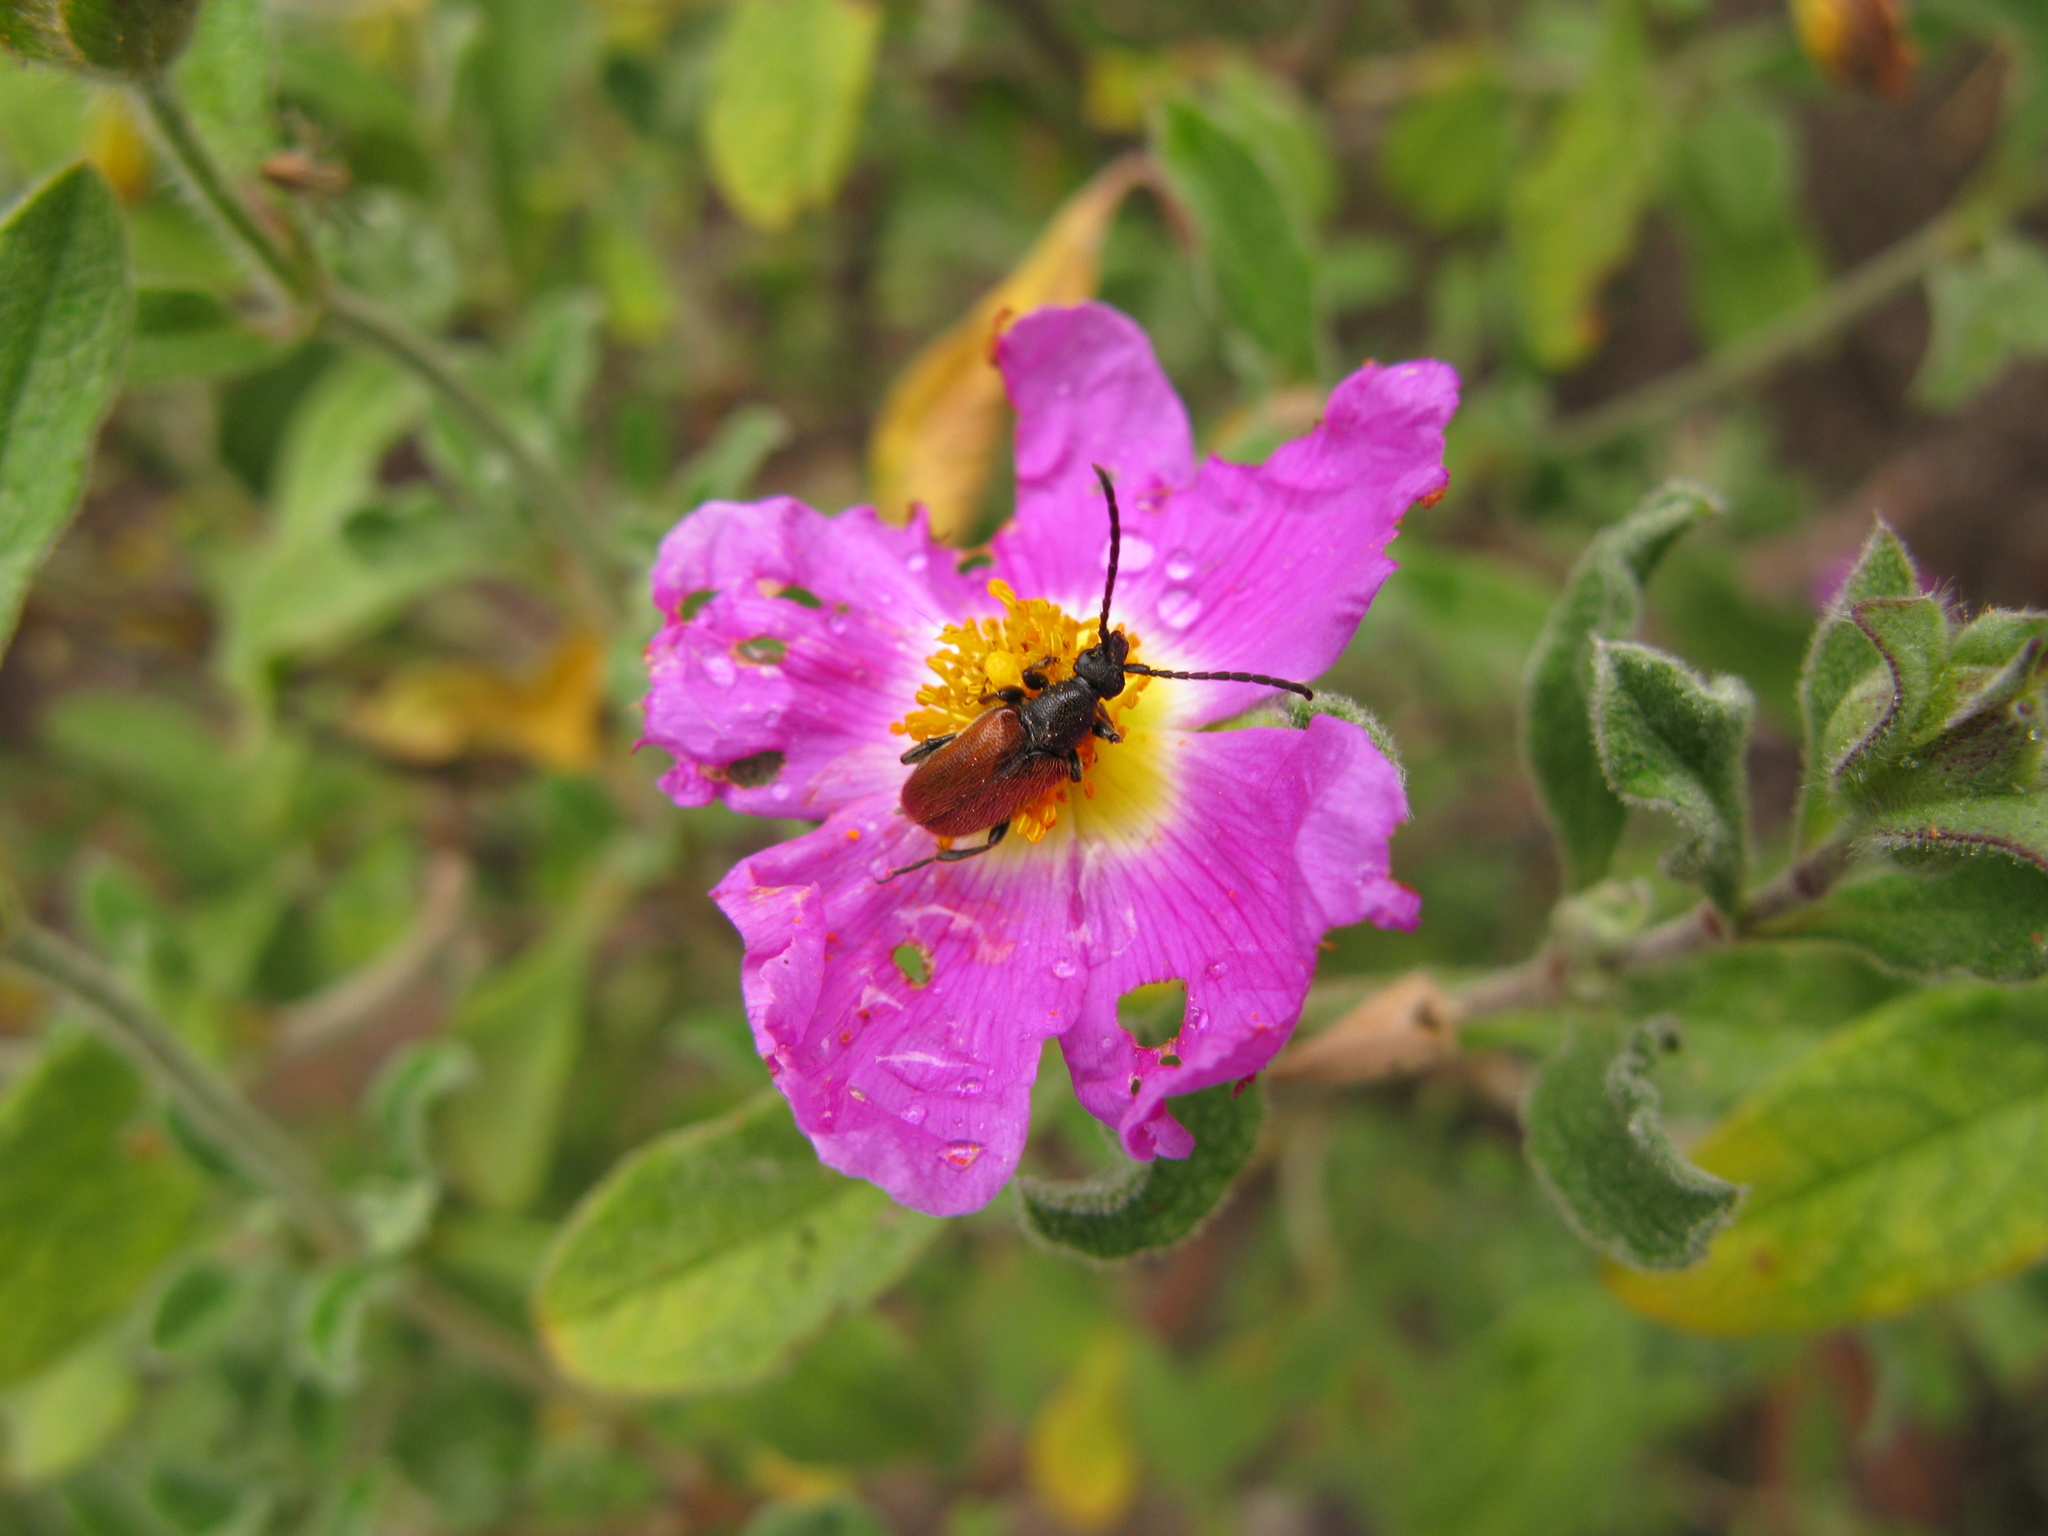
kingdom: Animalia
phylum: Arthropoda
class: Insecta
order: Coleoptera
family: Cerambycidae
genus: Pseudovadonia
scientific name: Pseudovadonia livida
